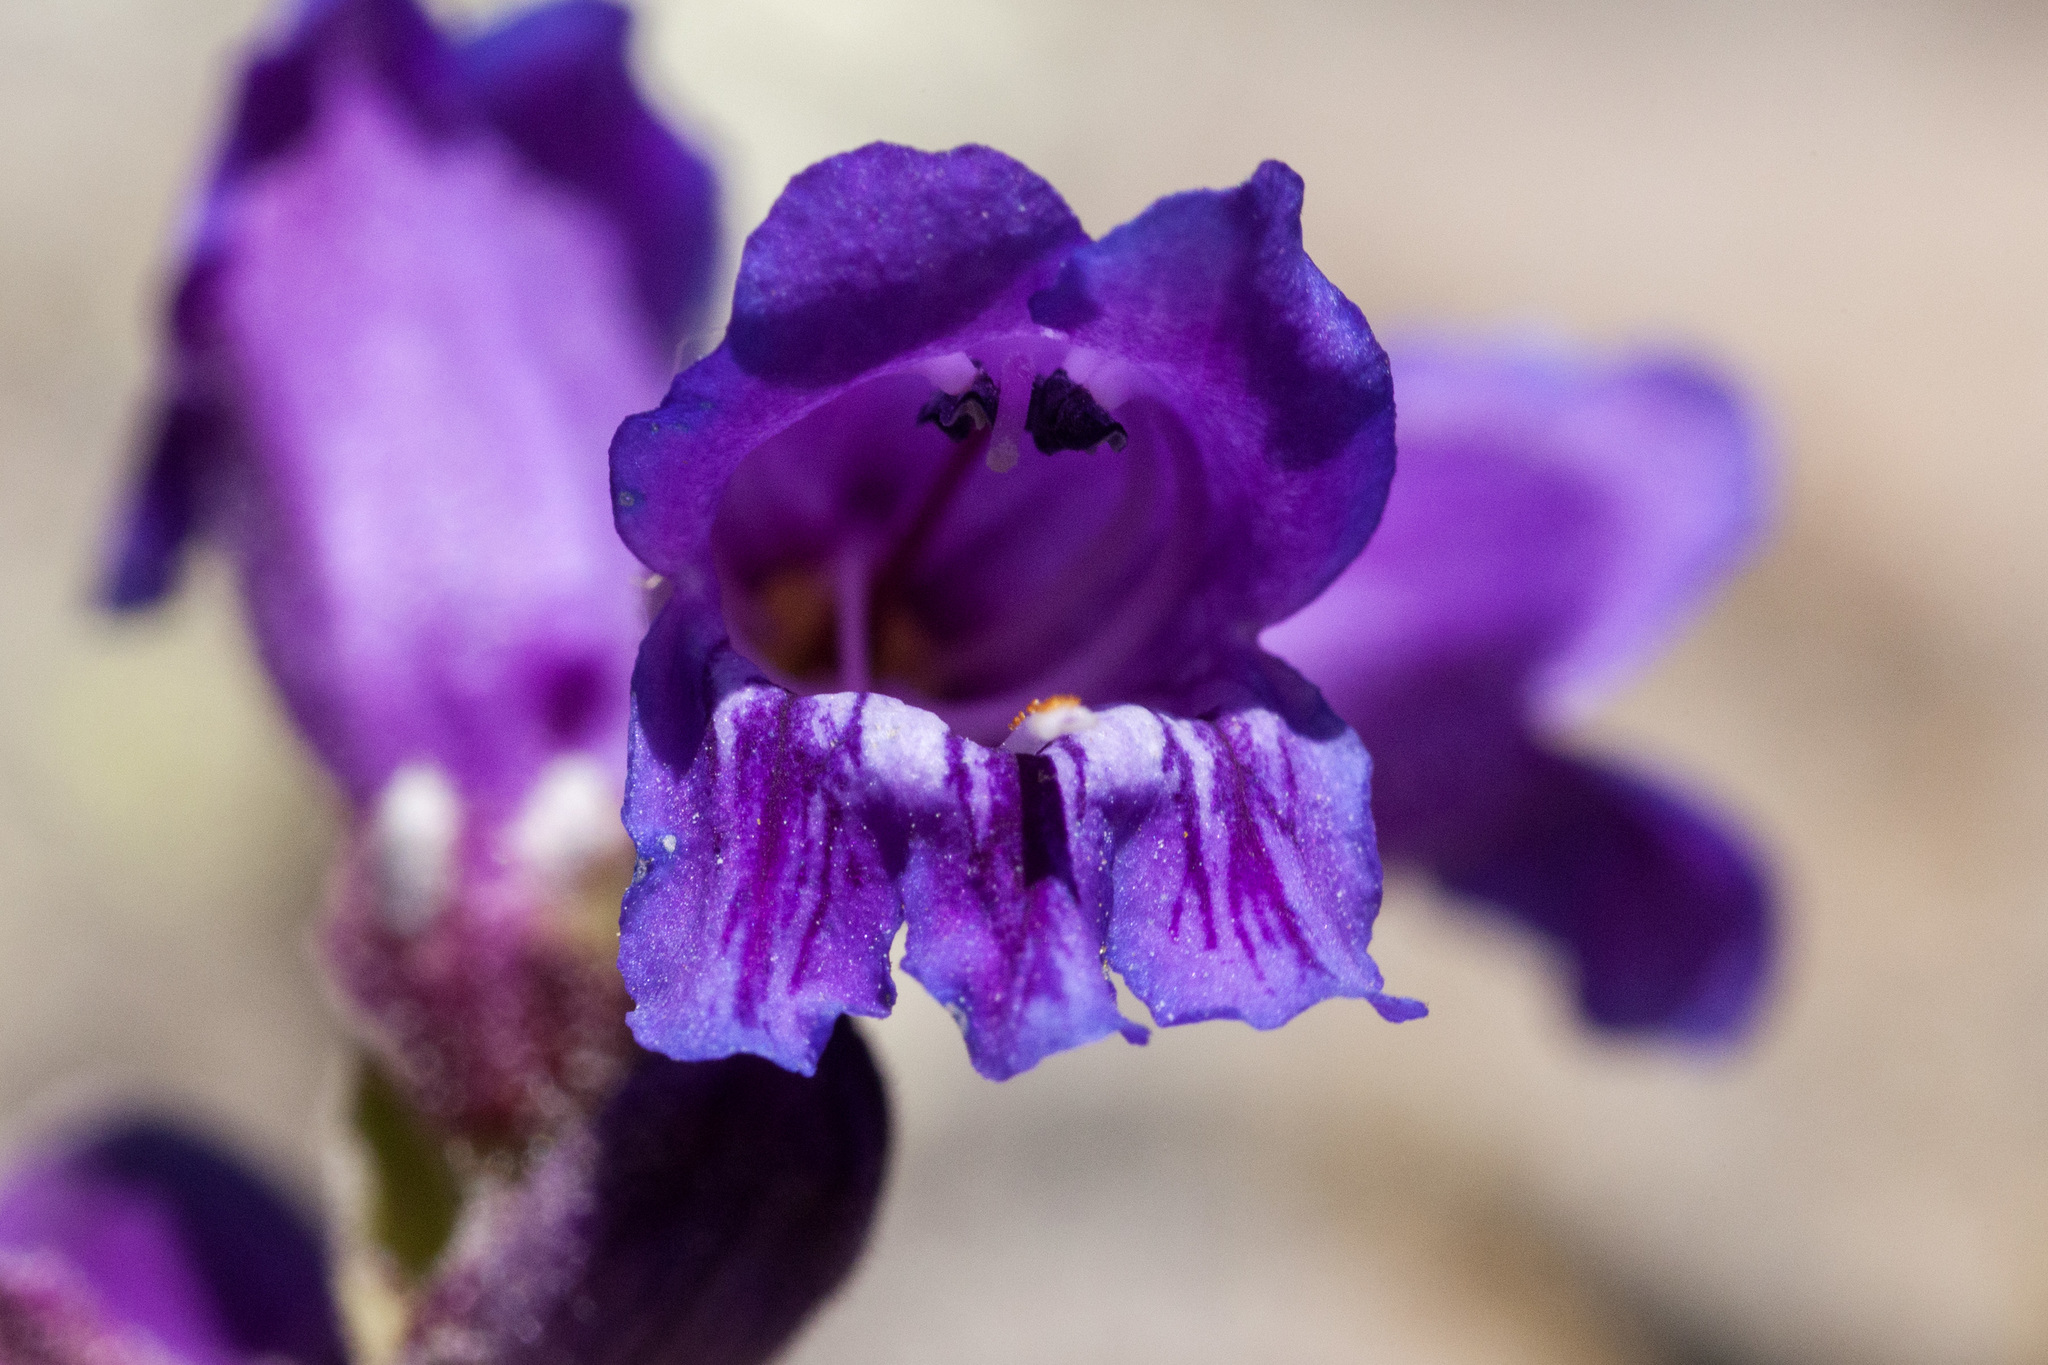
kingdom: Plantae
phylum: Tracheophyta
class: Magnoliopsida
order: Lamiales
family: Plantaginaceae
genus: Penstemon
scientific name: Penstemon hallii
